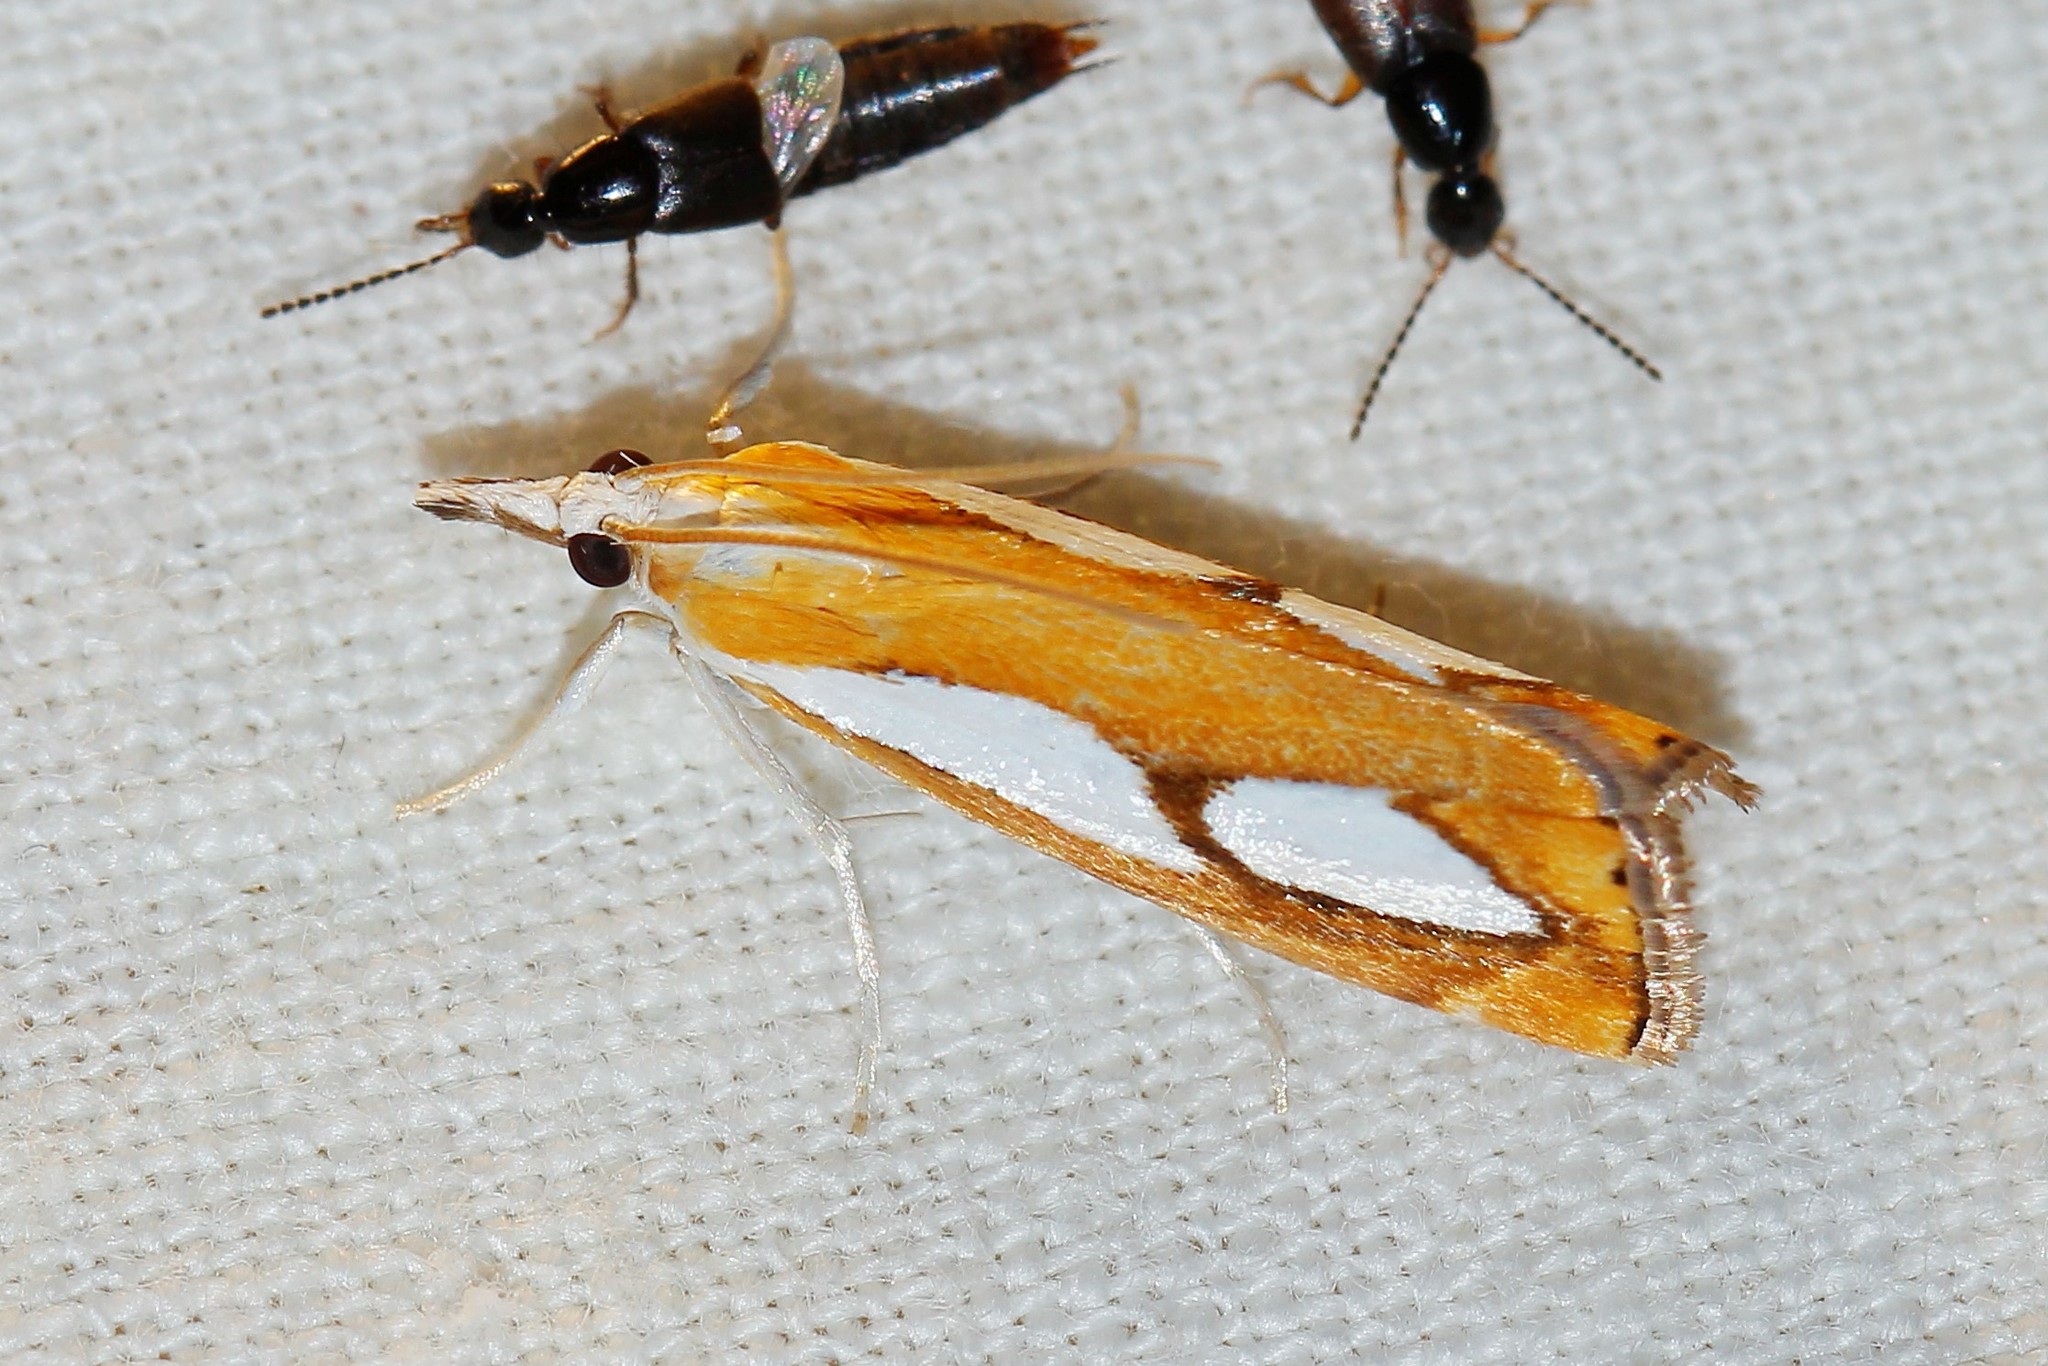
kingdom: Animalia
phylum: Arthropoda
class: Insecta
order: Lepidoptera
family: Crambidae
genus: Catoptria
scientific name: Catoptria pinella
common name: Pearl grass-veneer
